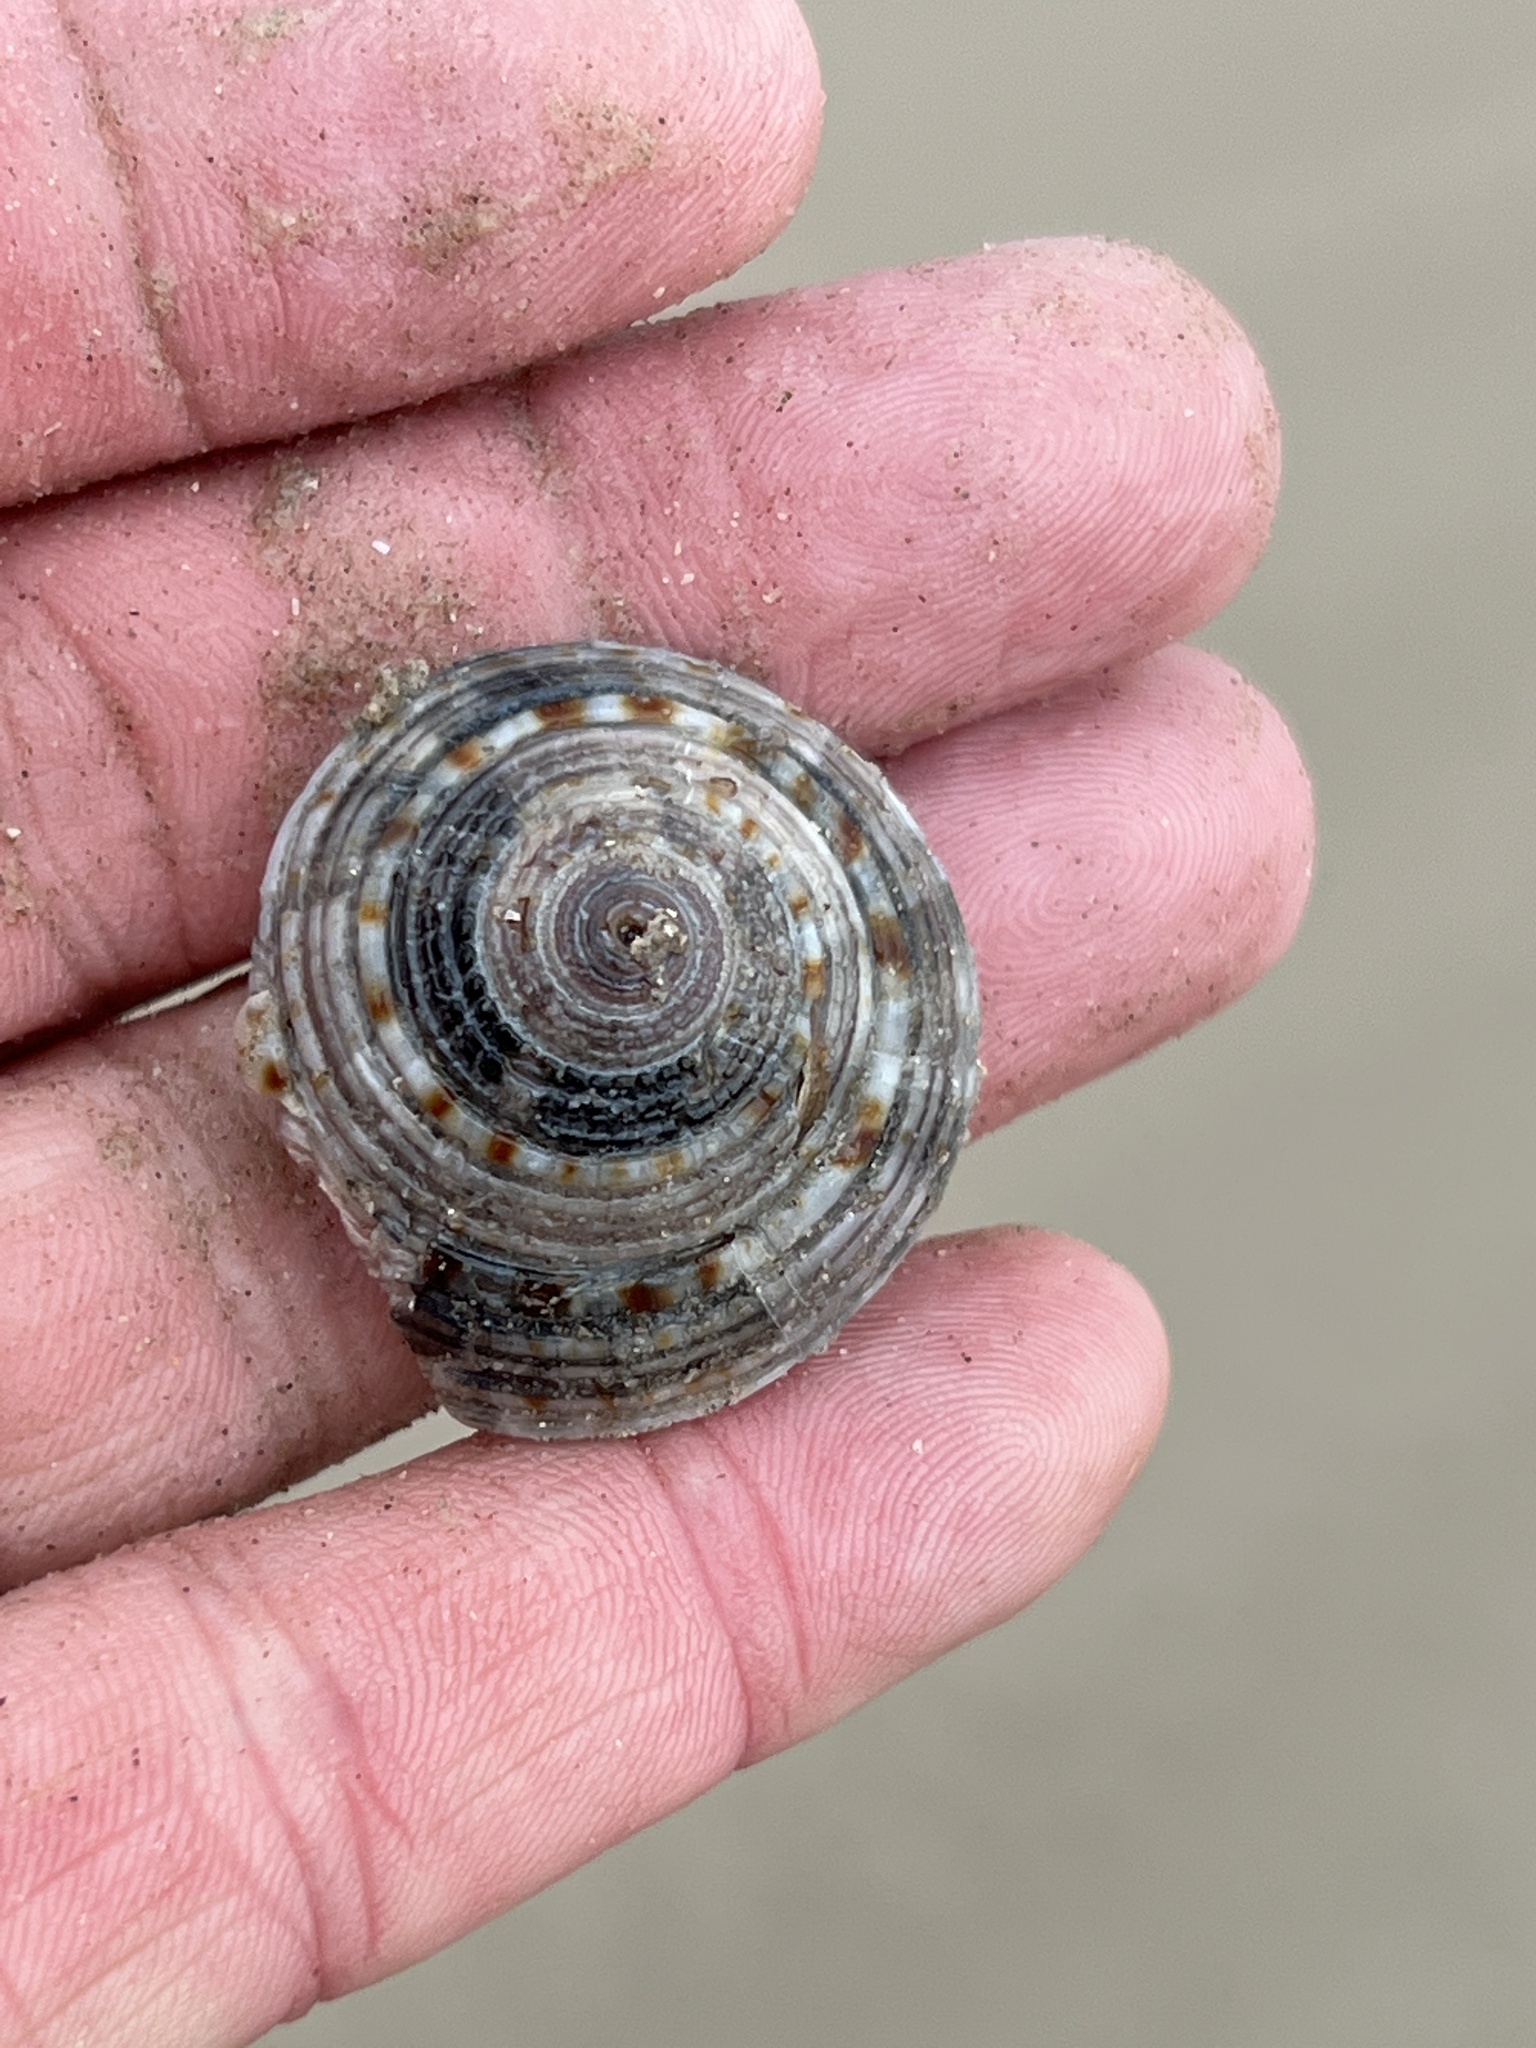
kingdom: Animalia
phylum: Mollusca
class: Gastropoda
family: Architectonicidae
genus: Architectonica
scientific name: Architectonica nobilis
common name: Common sundial
